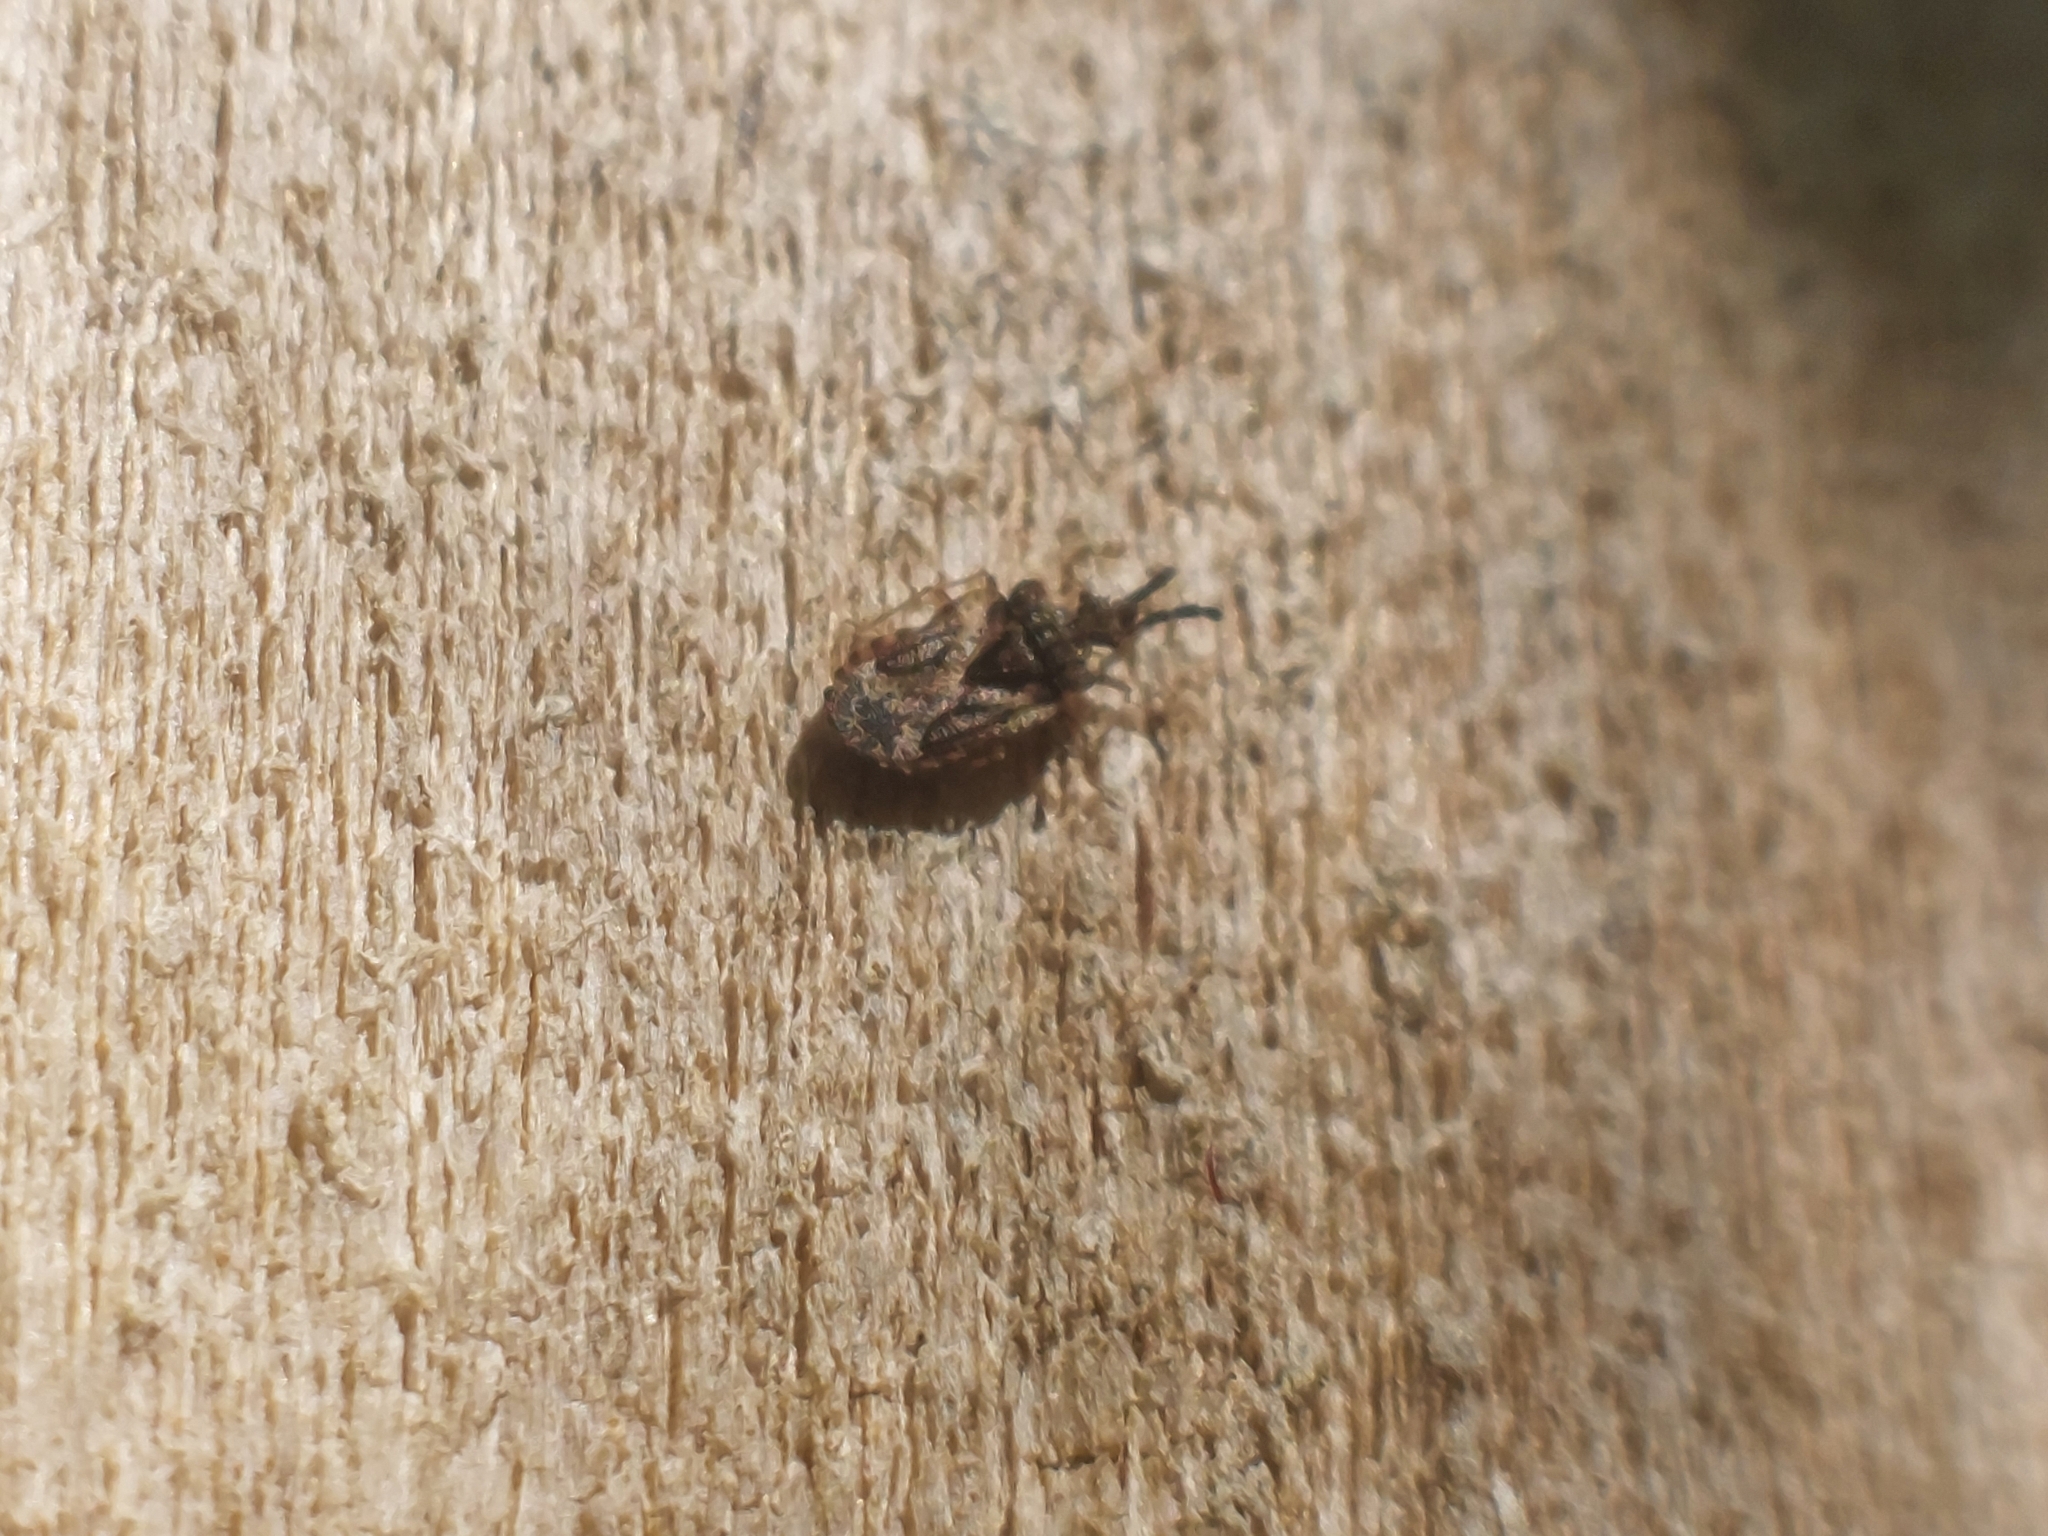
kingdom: Animalia
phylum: Arthropoda
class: Insecta
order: Hemiptera
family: Aradidae
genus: Aradus
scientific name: Aradus depressus
